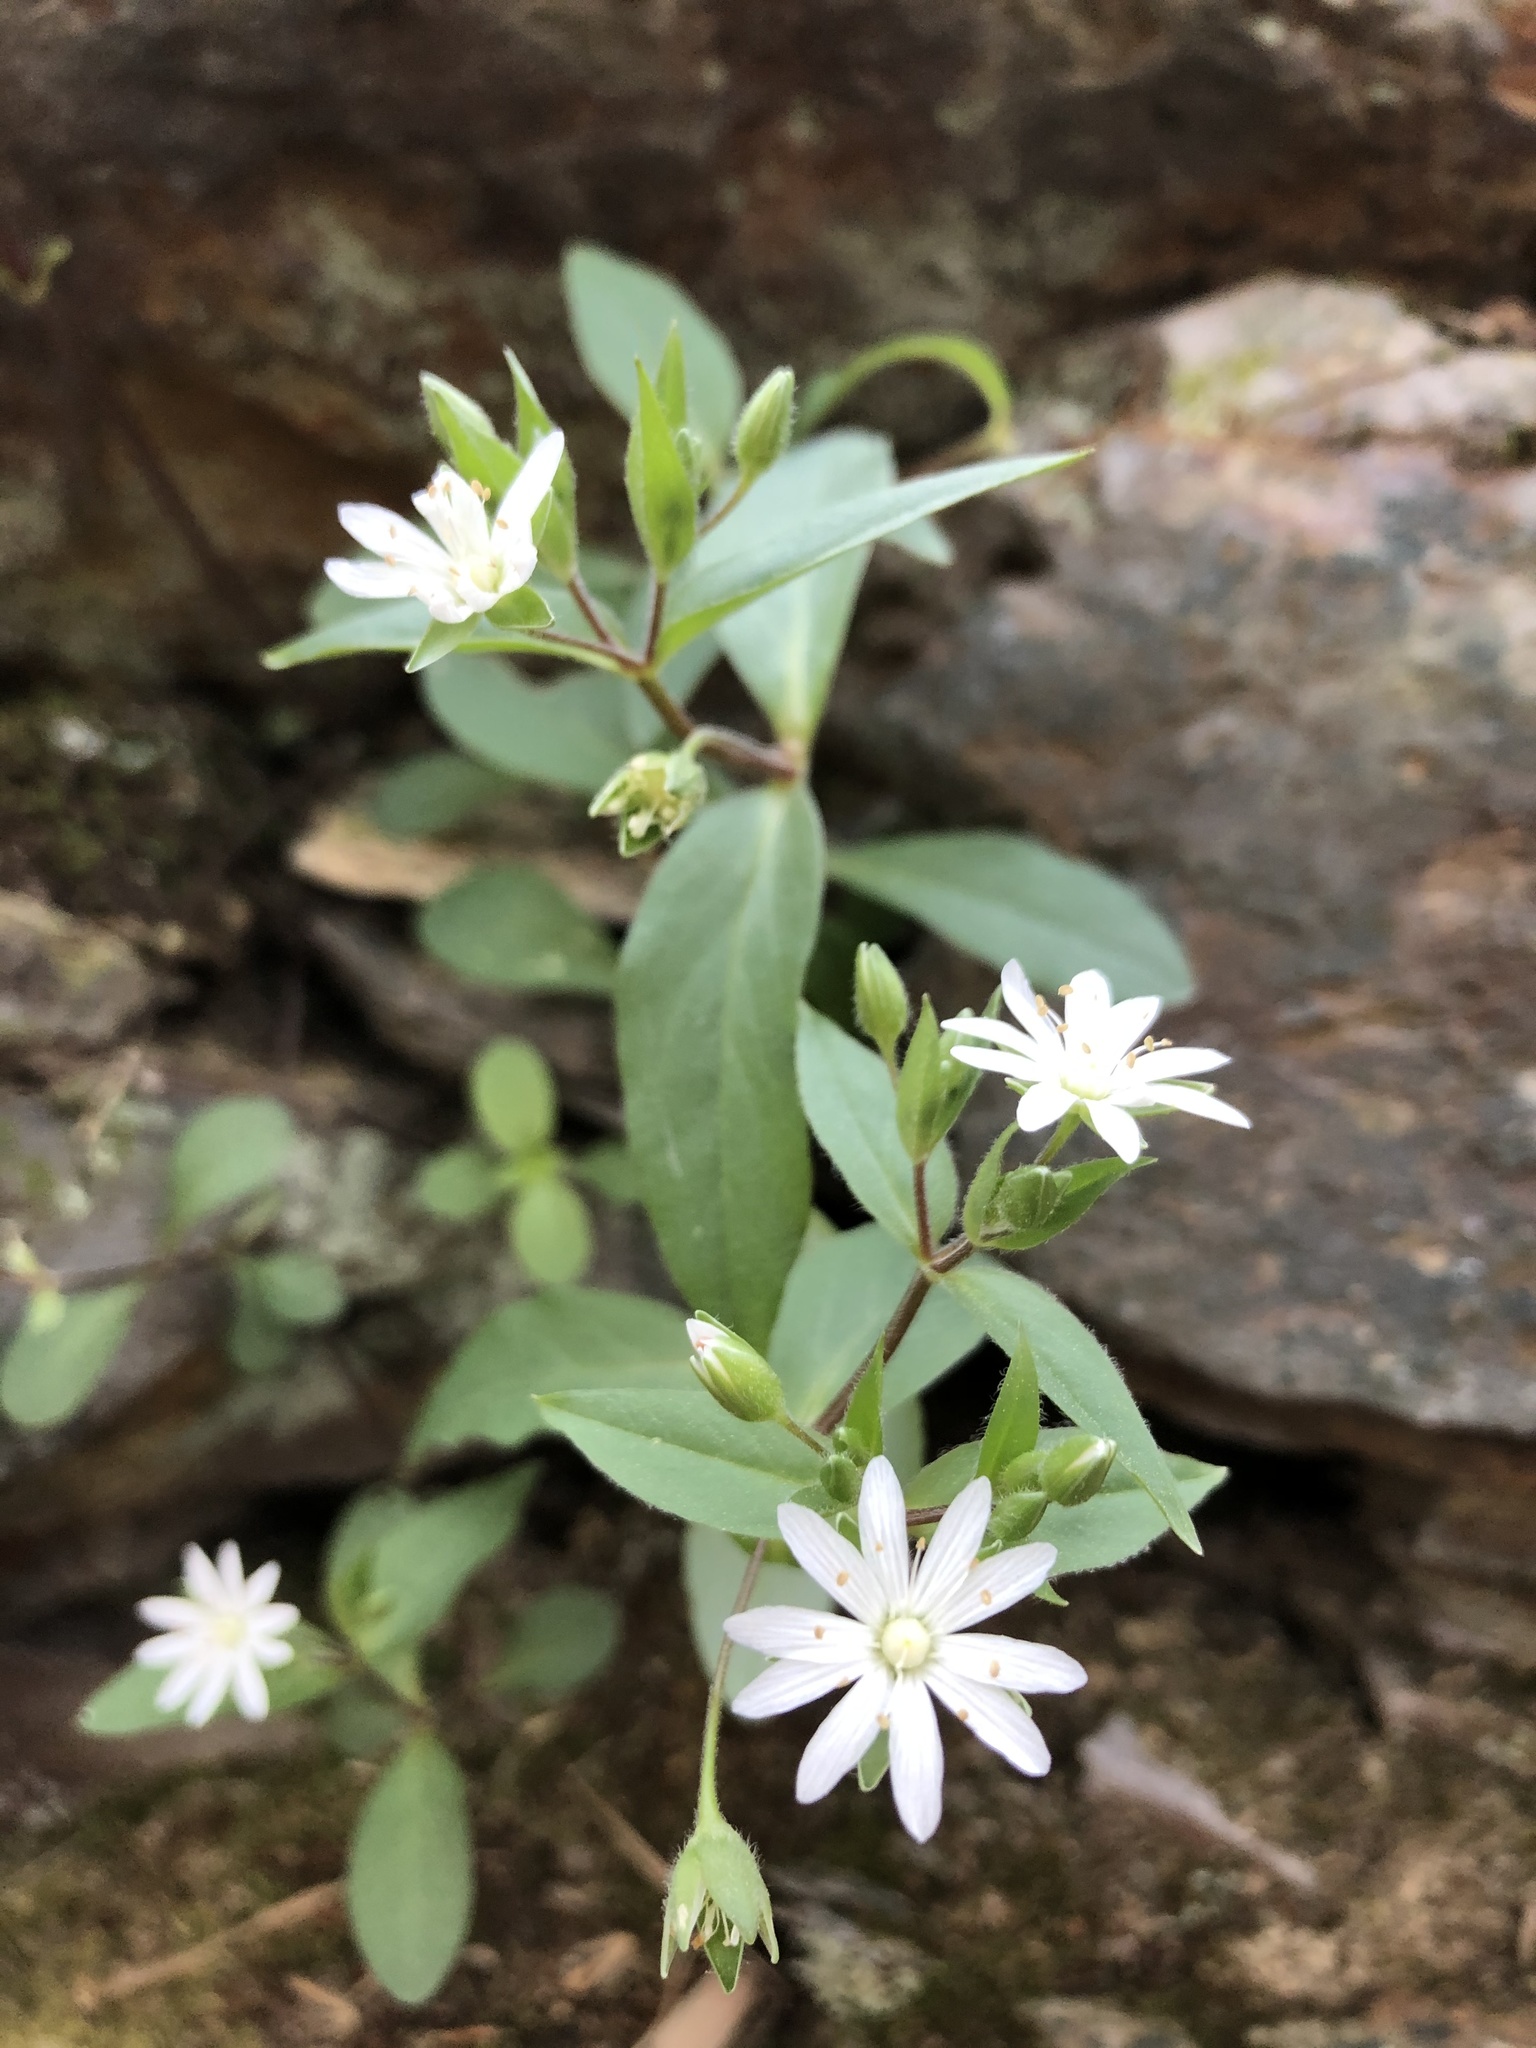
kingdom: Plantae
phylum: Tracheophyta
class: Magnoliopsida
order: Caryophyllales
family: Caryophyllaceae
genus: Stellaria
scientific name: Stellaria pubera
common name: Star chickweed
